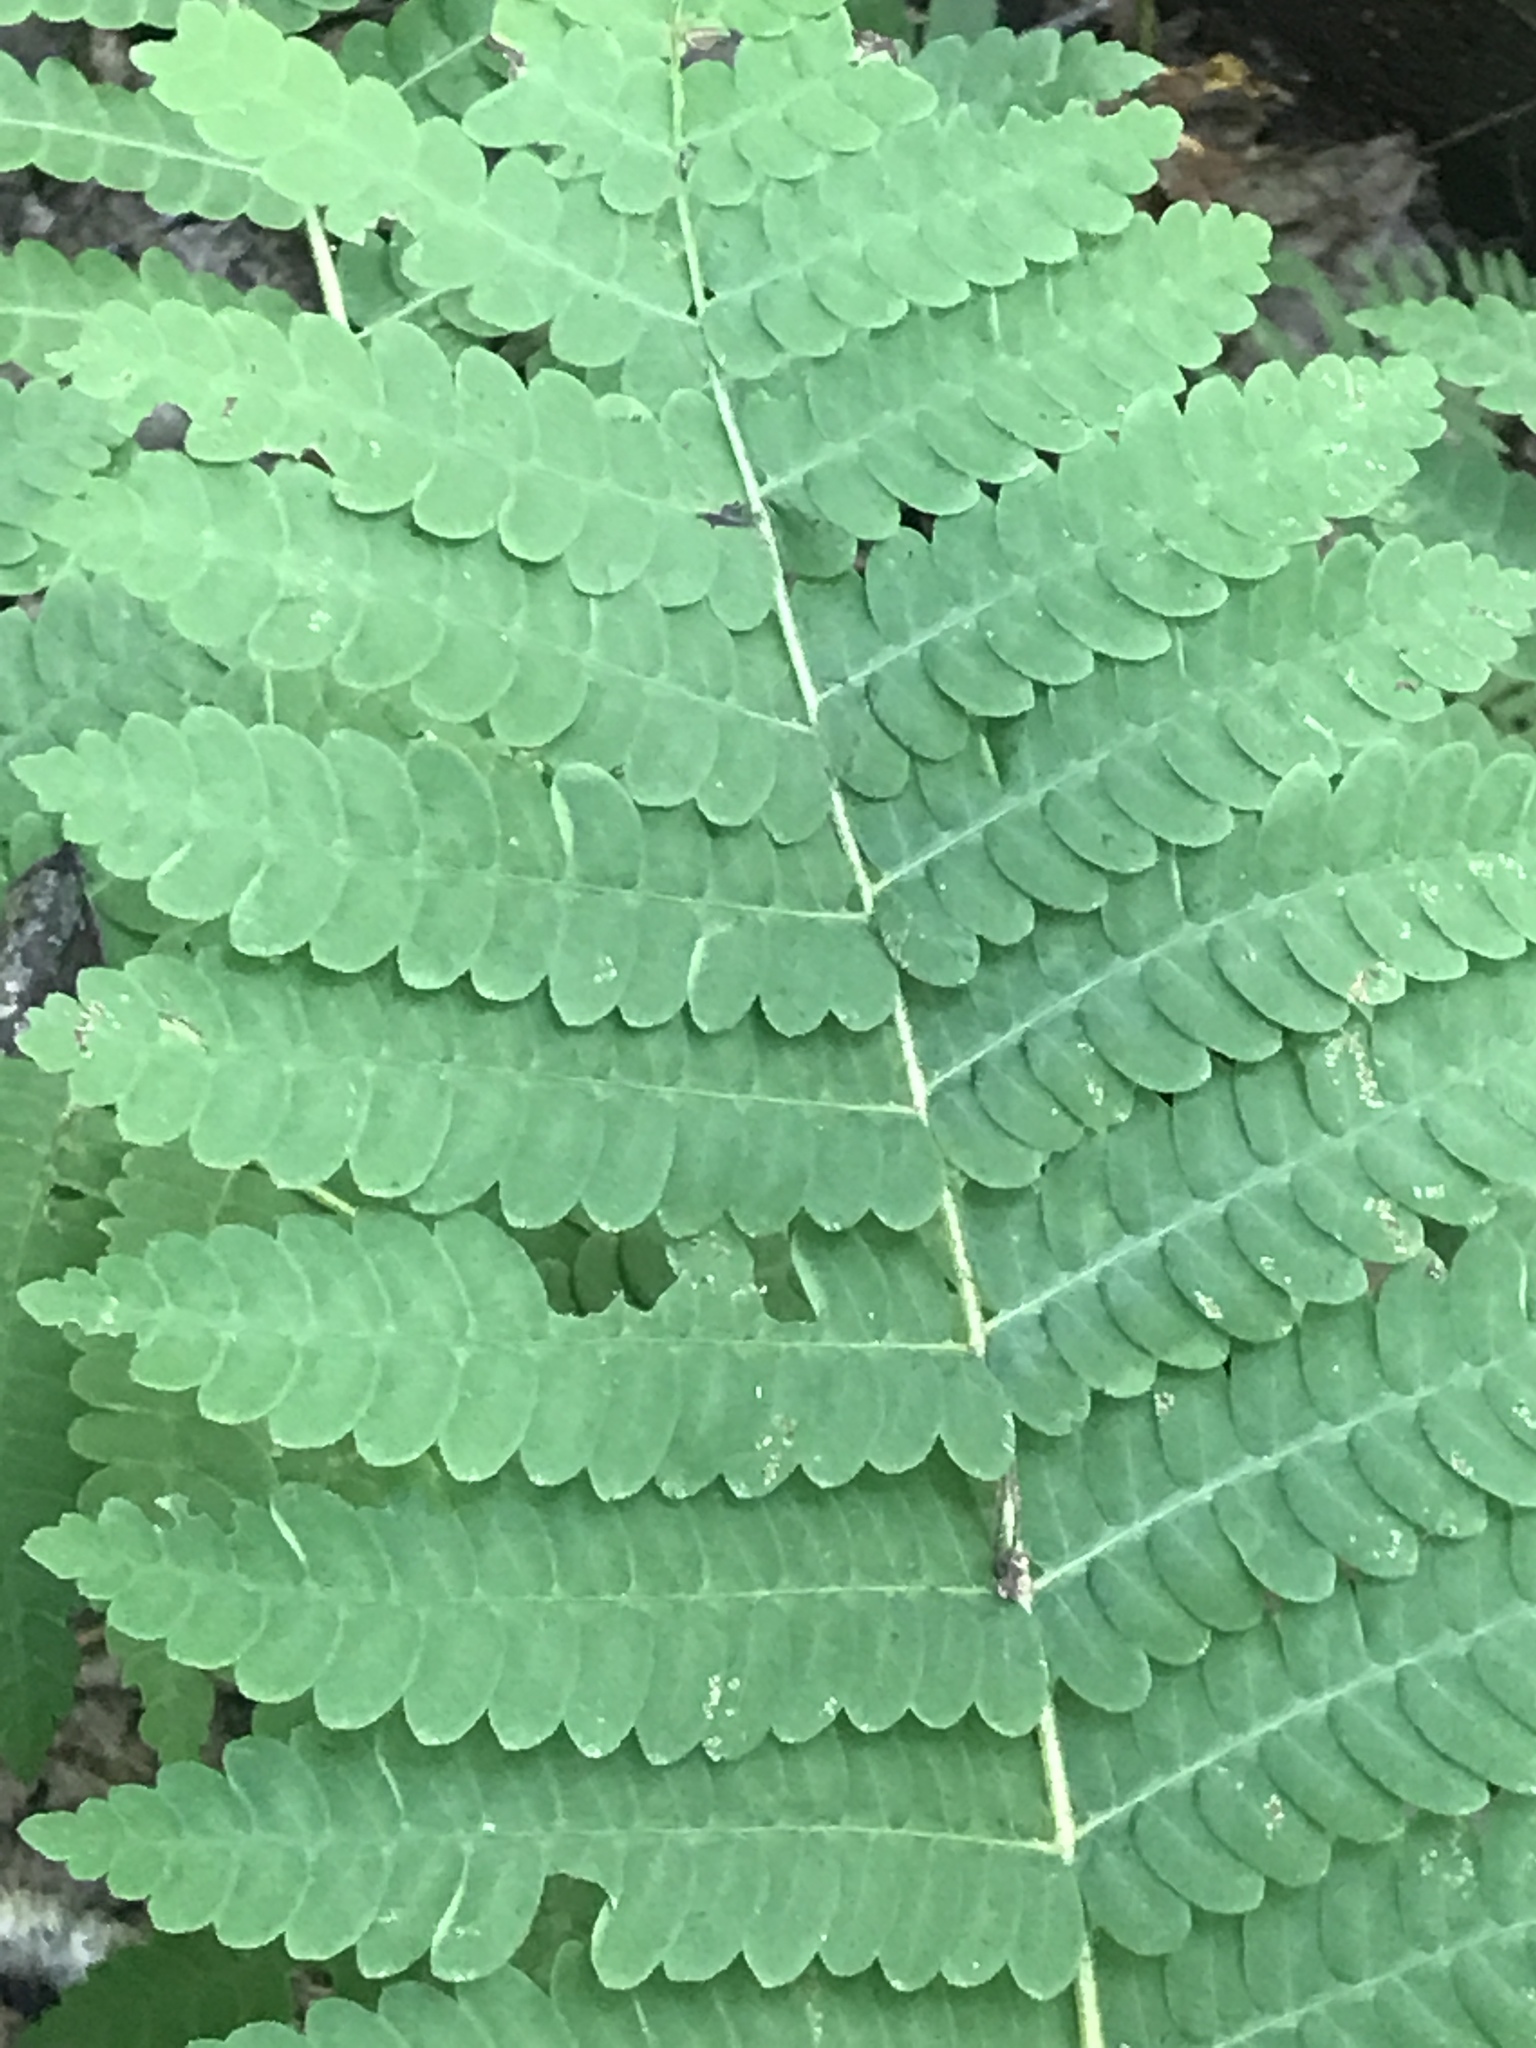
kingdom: Plantae
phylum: Tracheophyta
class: Polypodiopsida
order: Osmundales
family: Osmundaceae
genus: Claytosmunda
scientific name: Claytosmunda claytoniana
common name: Clayton's fern
